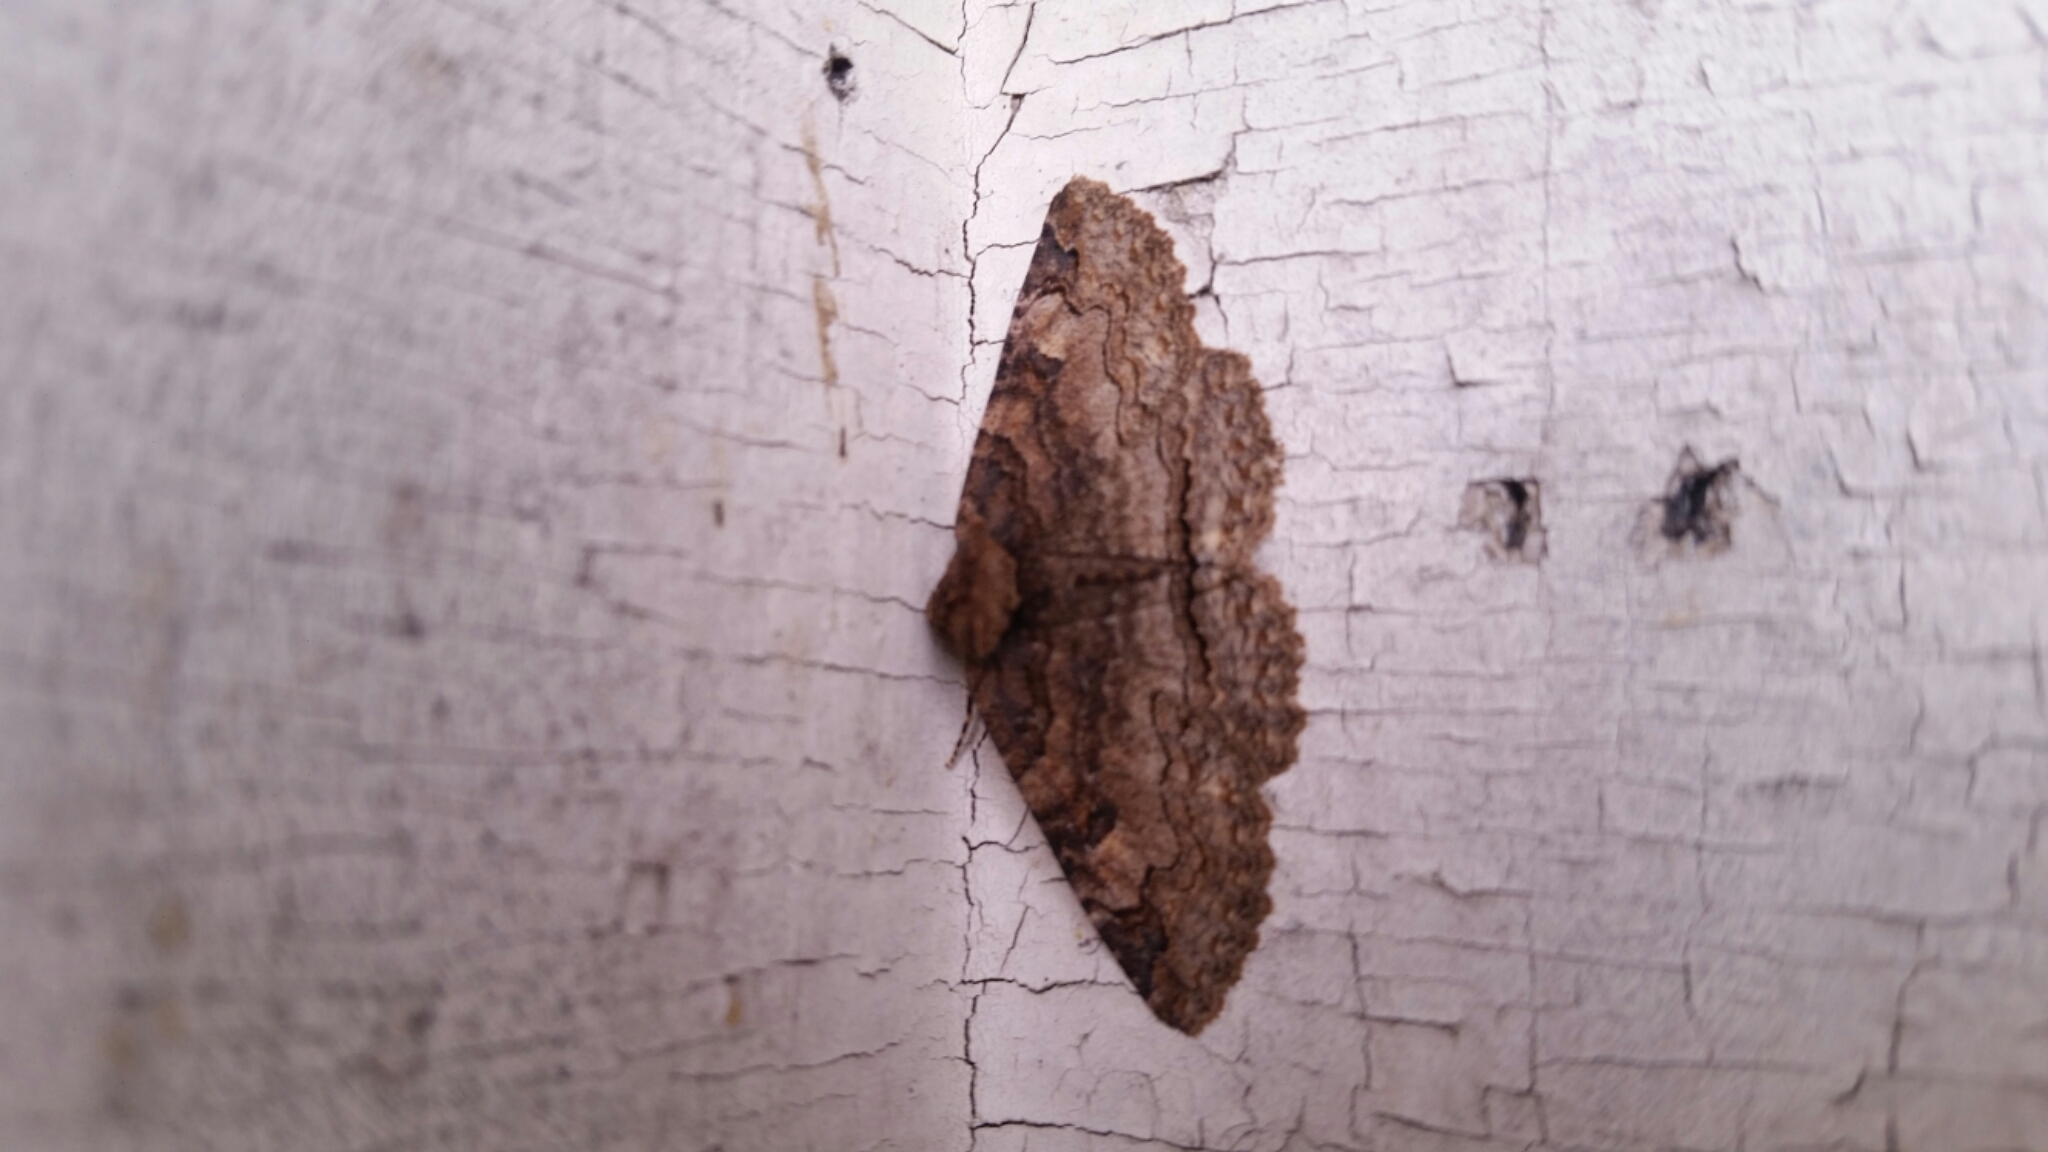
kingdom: Animalia
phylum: Arthropoda
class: Insecta
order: Lepidoptera
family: Erebidae
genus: Zale
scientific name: Zale phaeocapna
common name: Hazel zale moth
